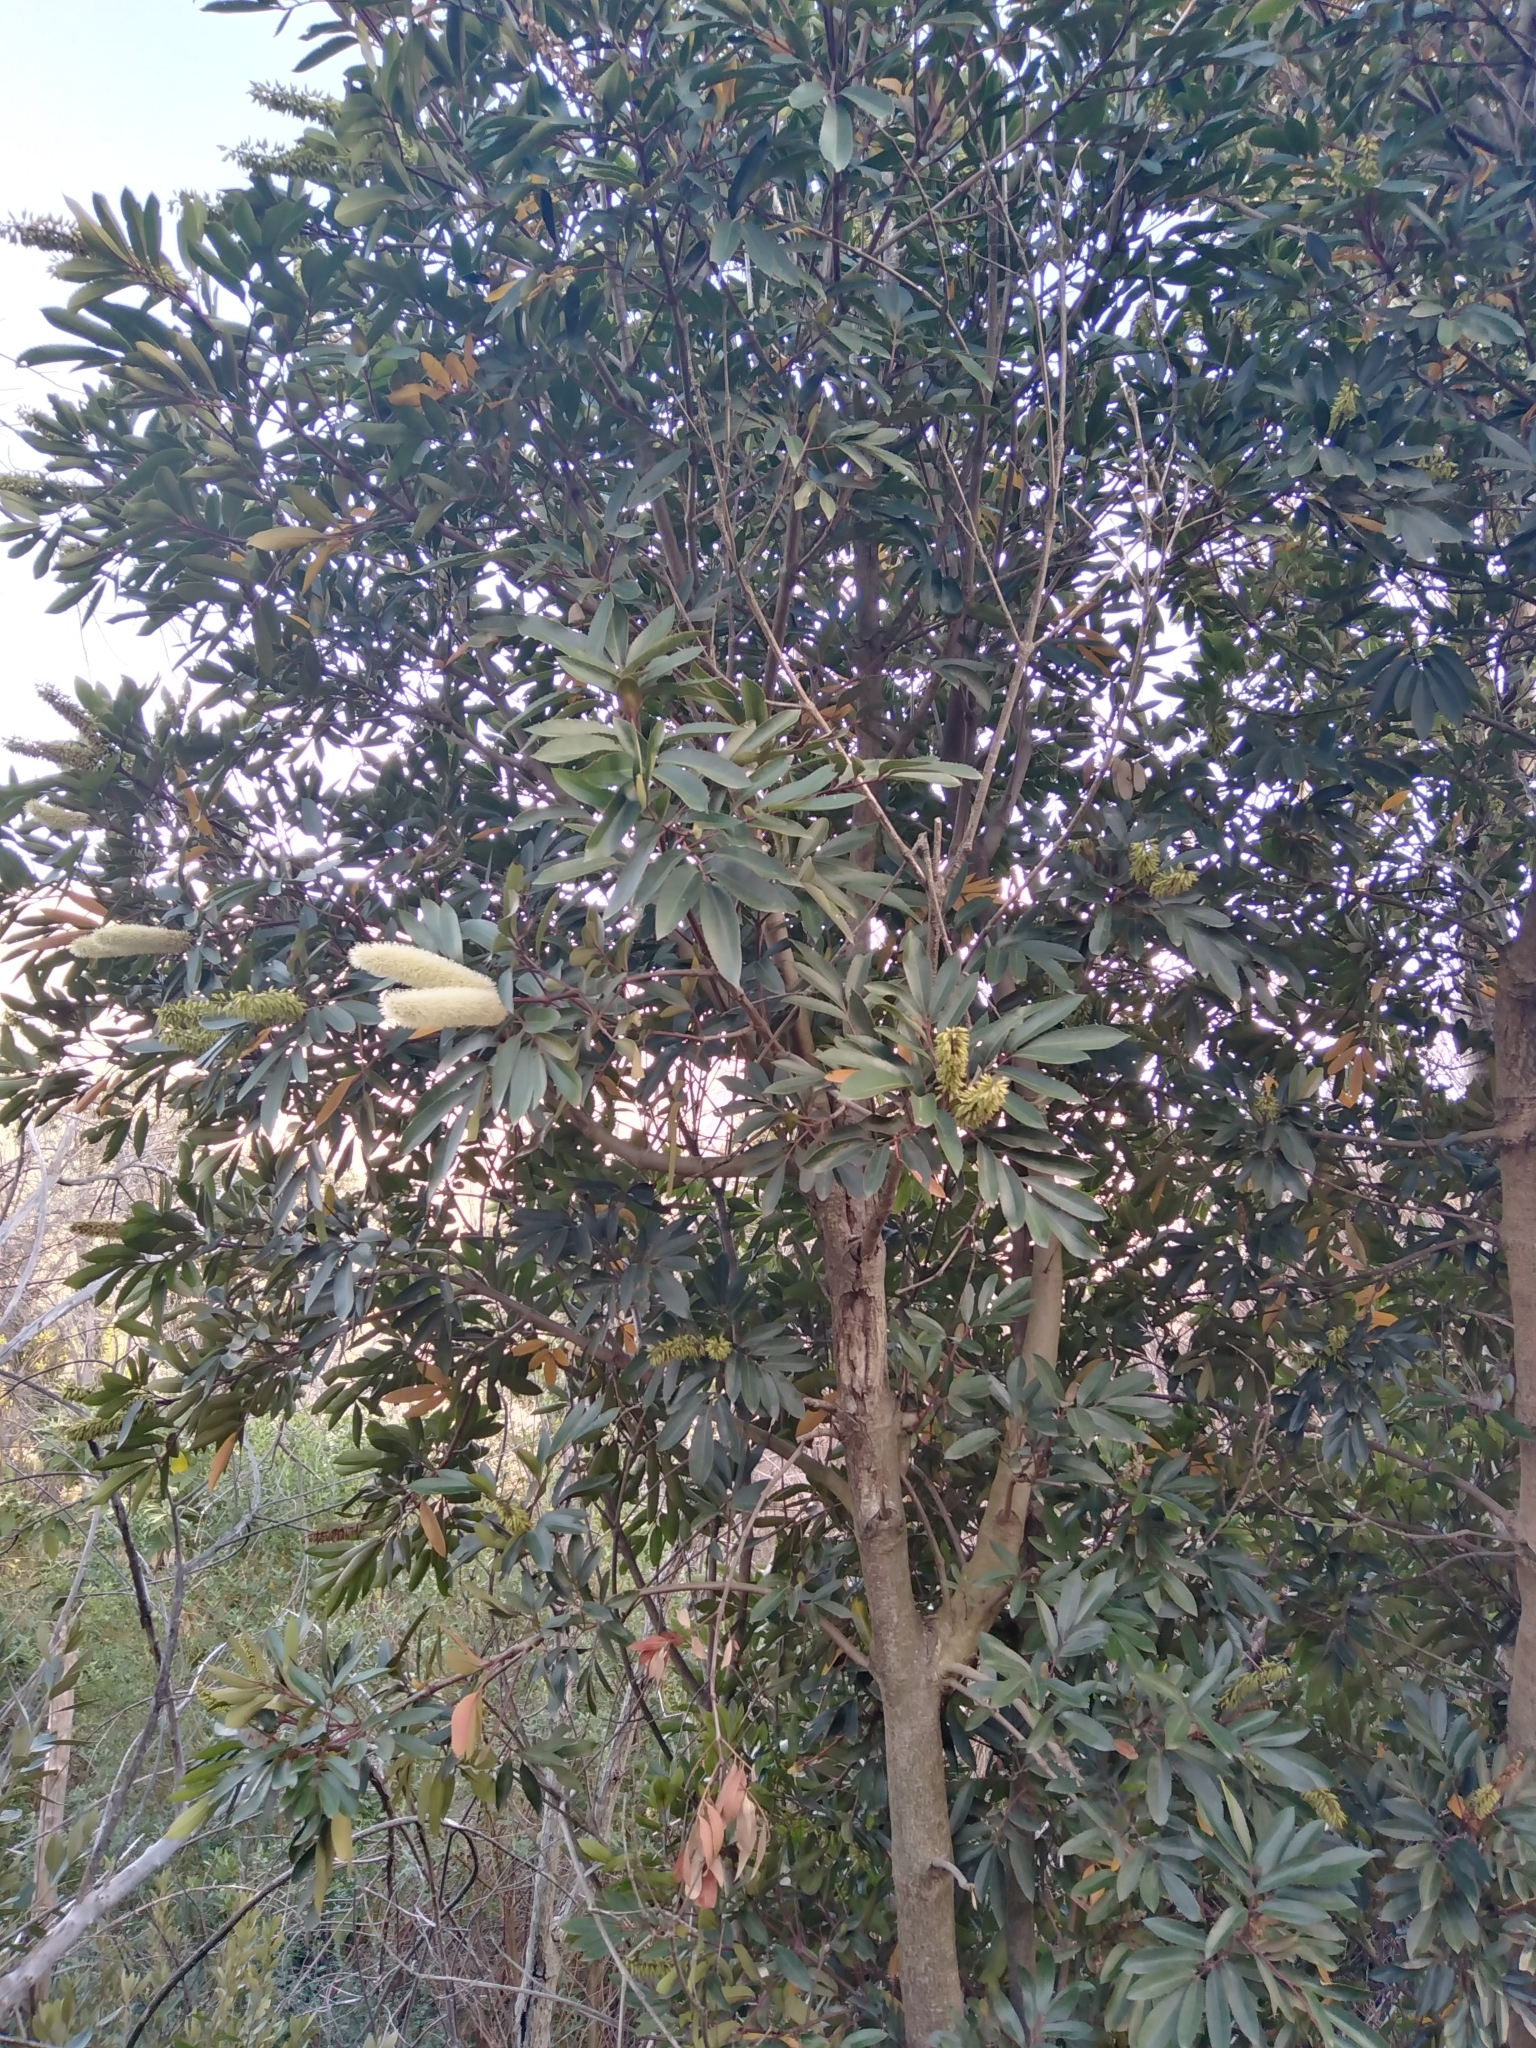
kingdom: Plantae
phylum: Tracheophyta
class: Magnoliopsida
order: Oxalidales
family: Cunoniaceae
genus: Cunonia
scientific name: Cunonia capensis
